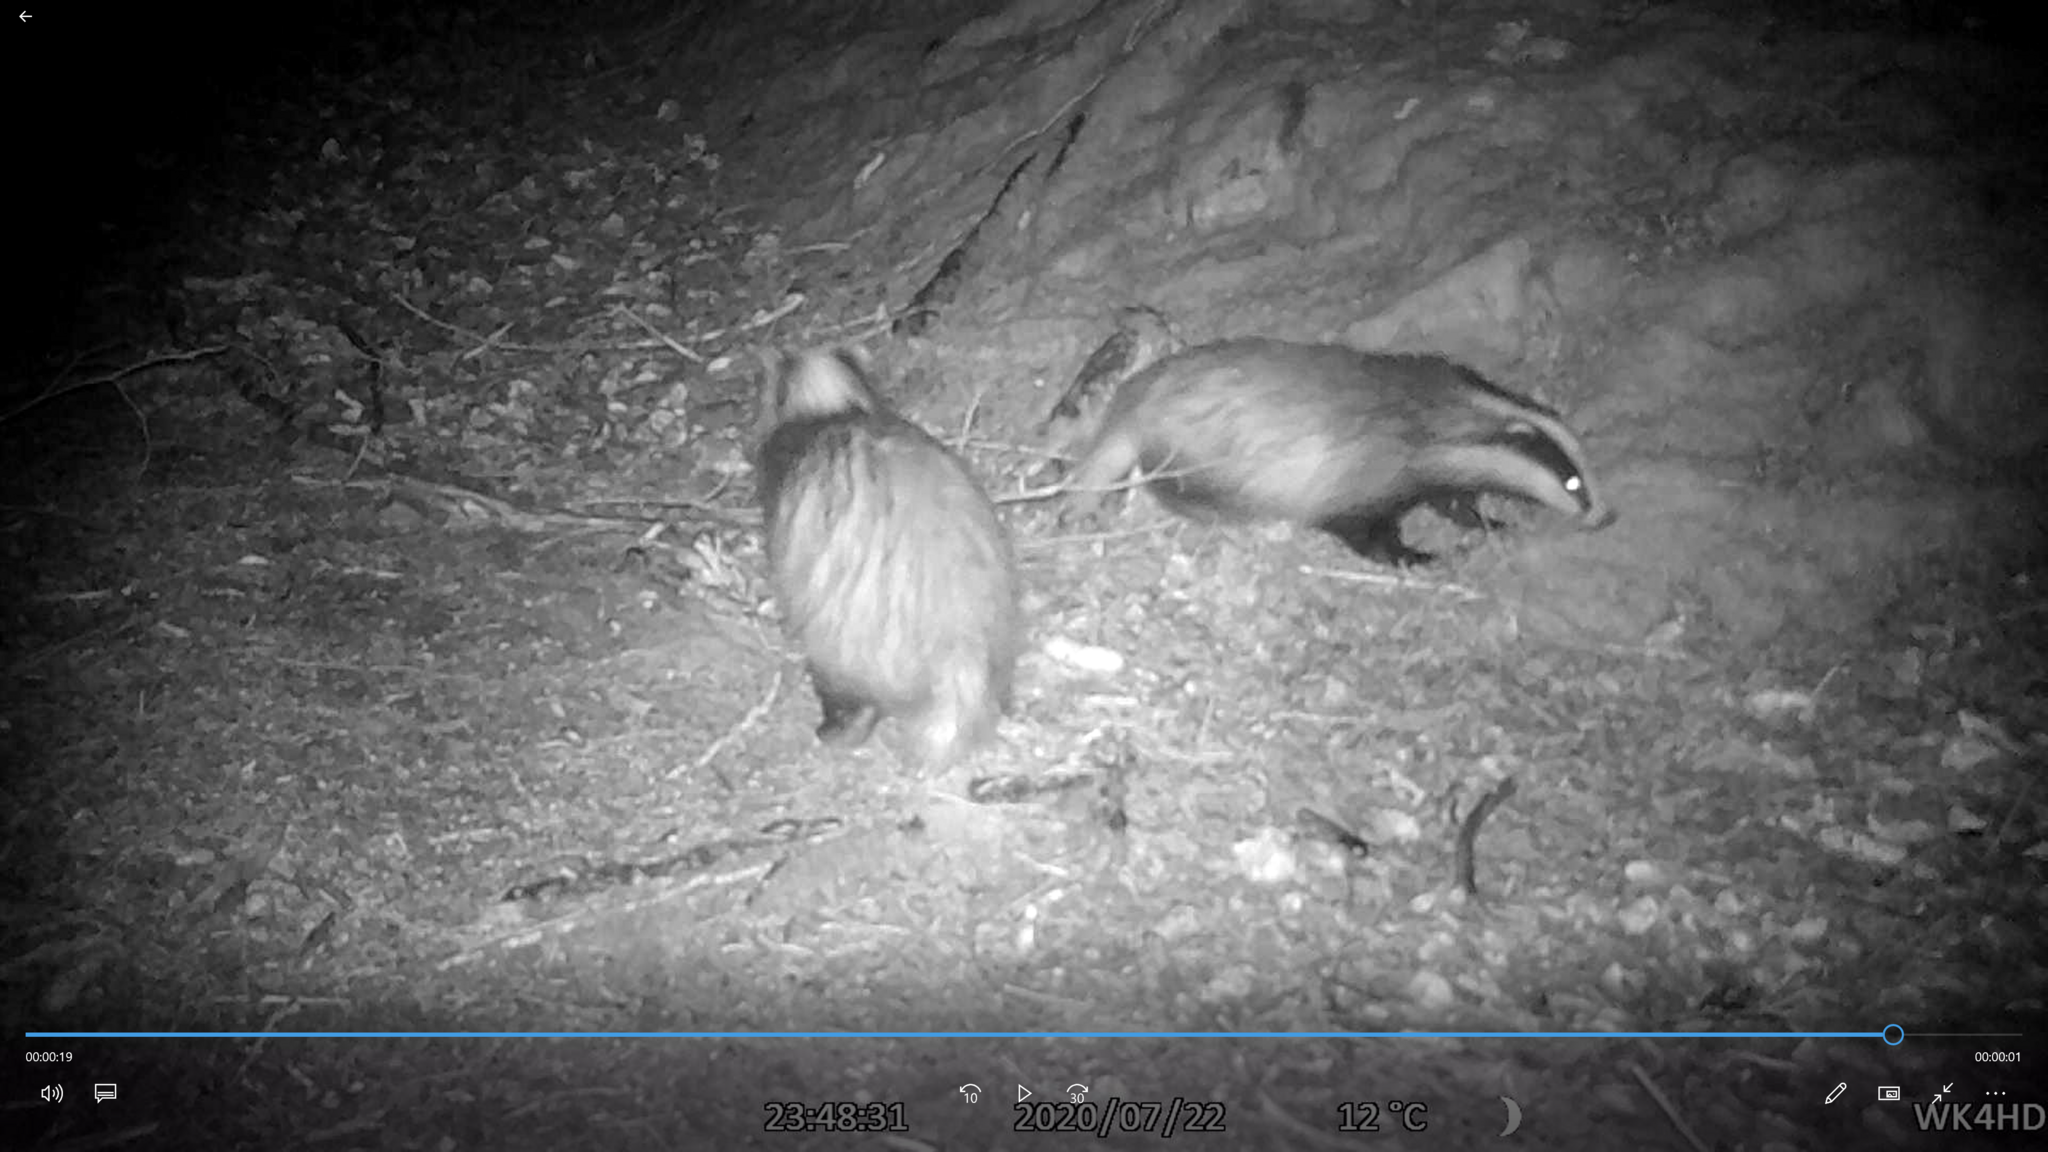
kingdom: Animalia
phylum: Chordata
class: Mammalia
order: Carnivora
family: Mustelidae
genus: Meles
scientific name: Meles meles
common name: Eurasian badger
